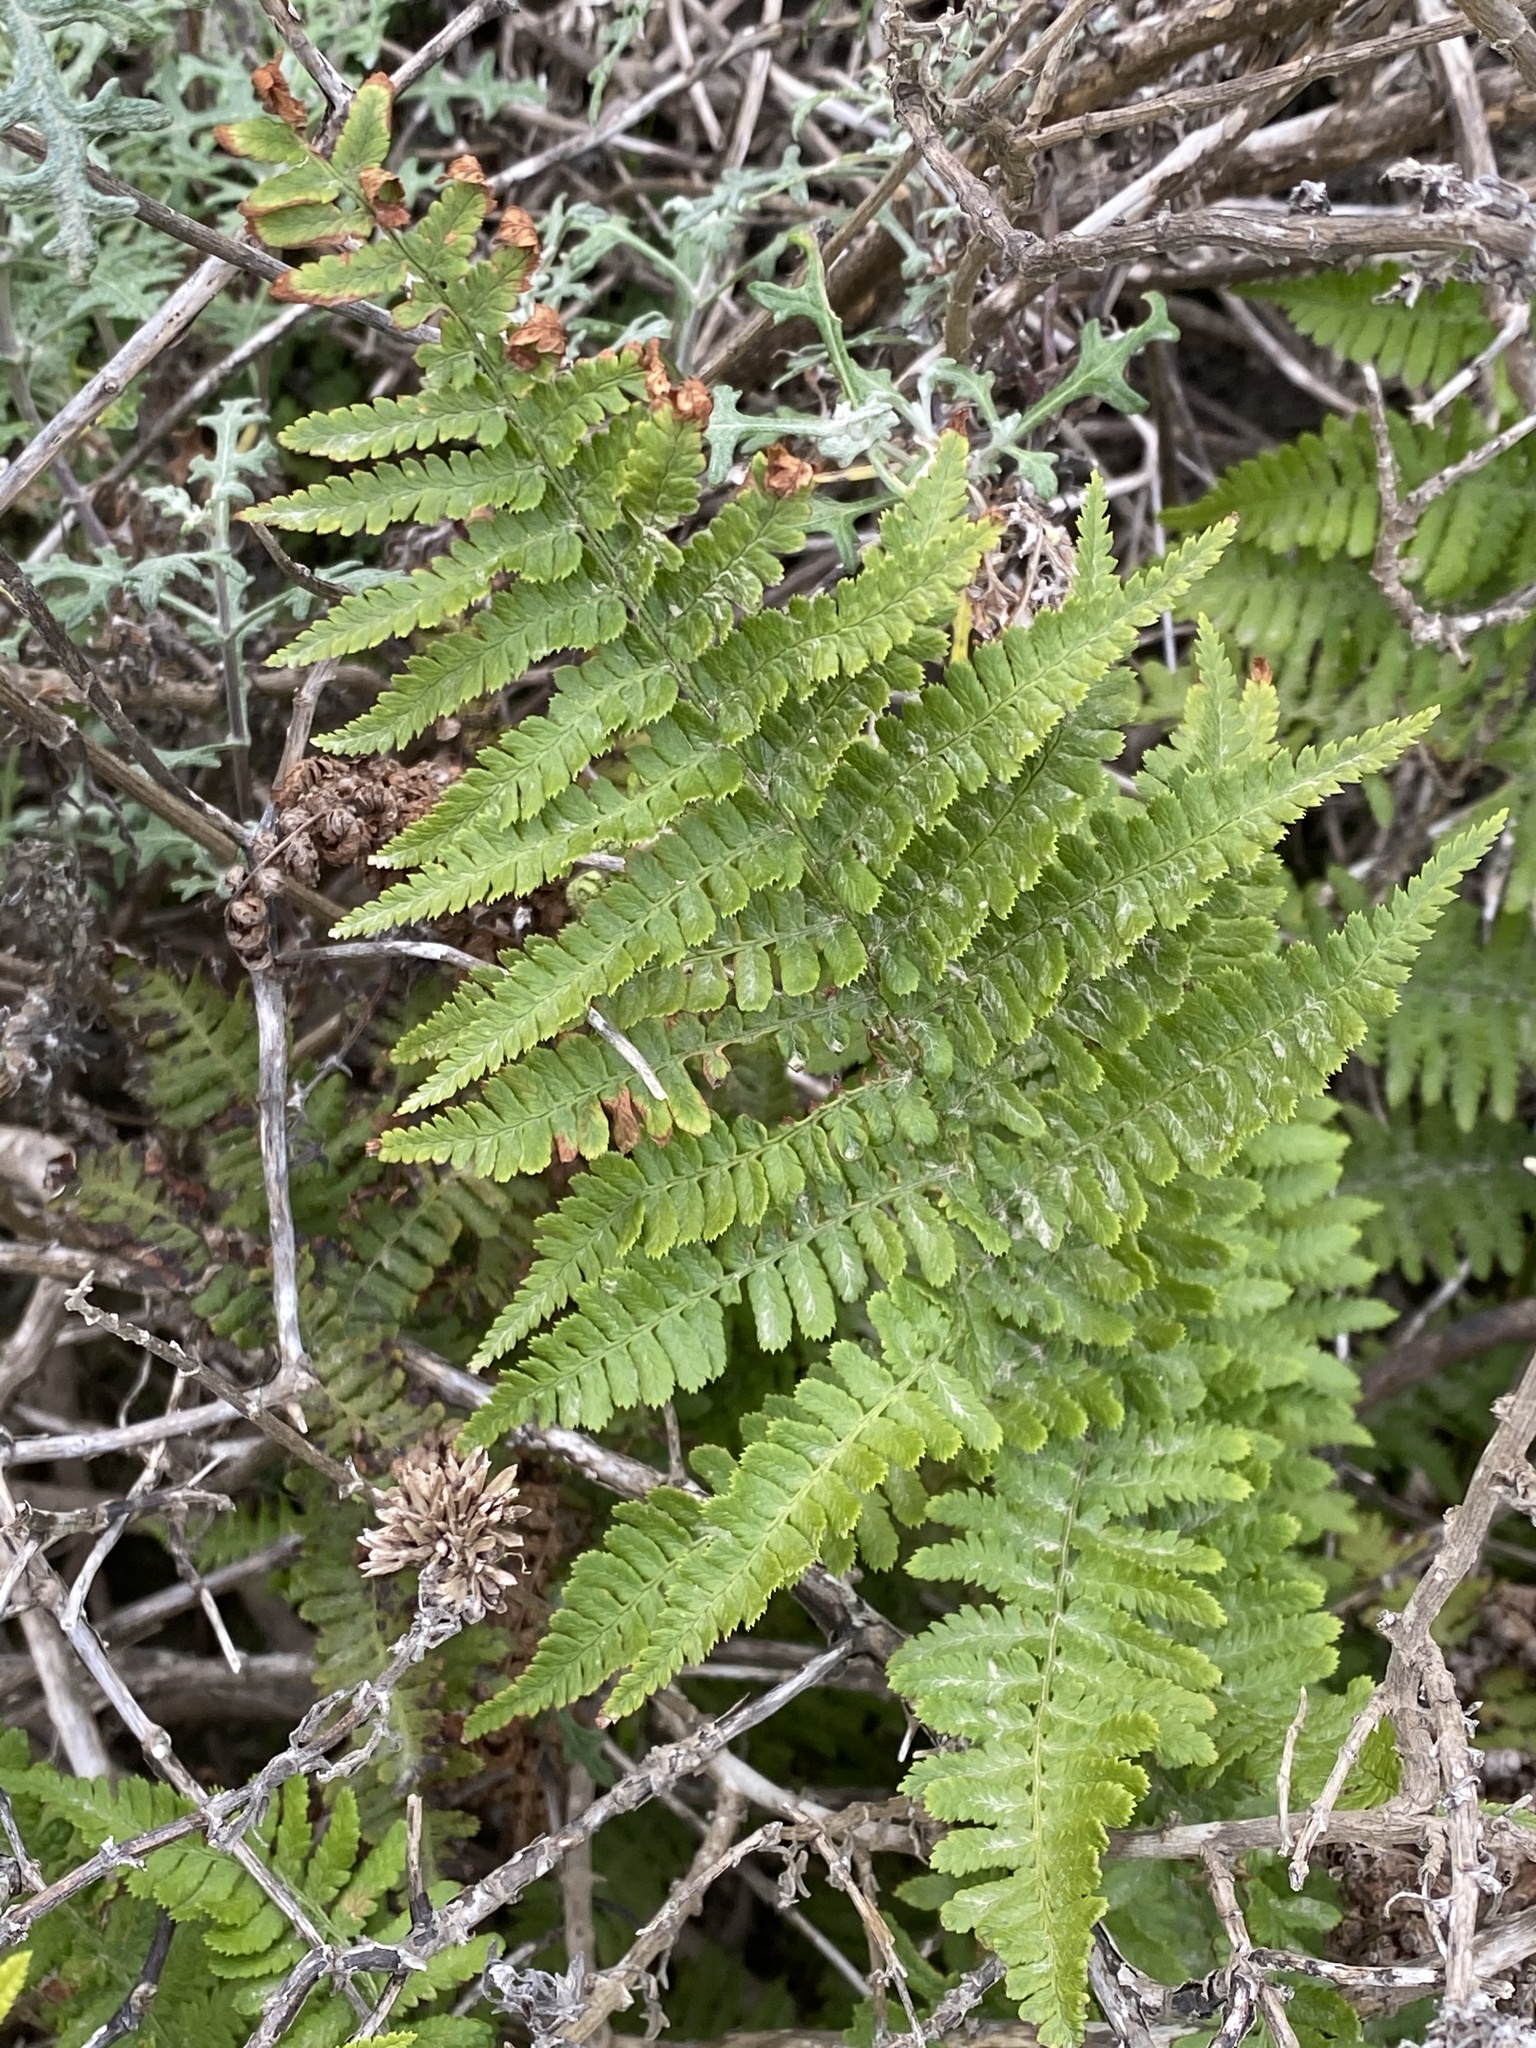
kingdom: Plantae
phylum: Tracheophyta
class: Polypodiopsida
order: Polypodiales
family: Dryopteridaceae
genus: Dryopteris
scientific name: Dryopteris arguta
